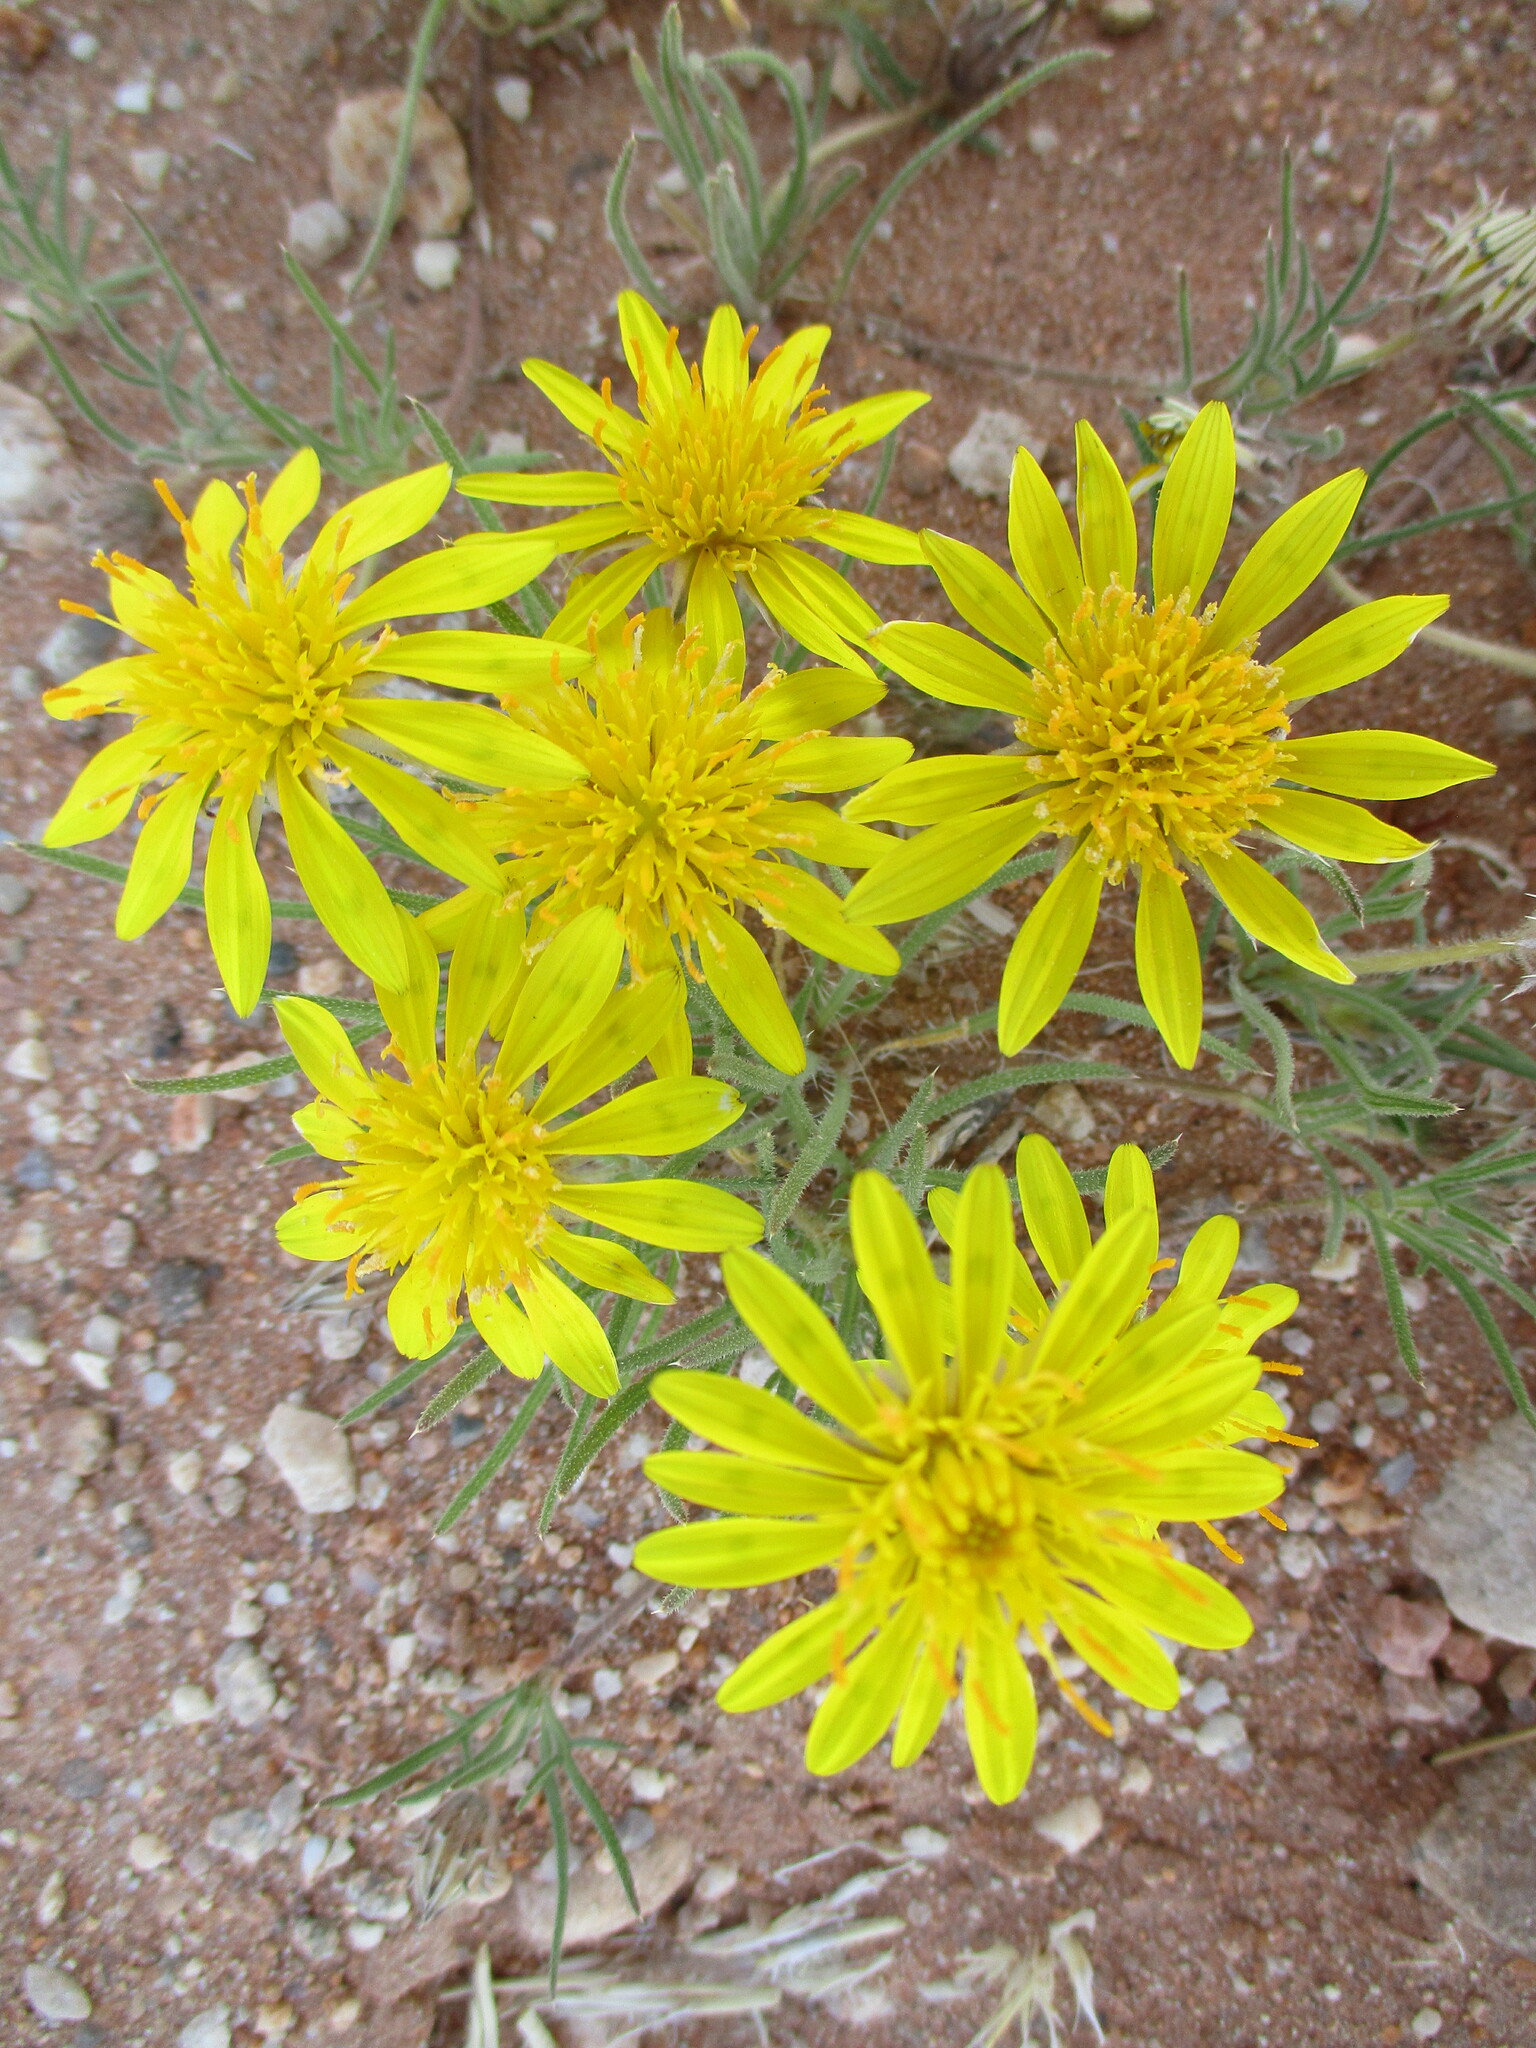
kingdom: Plantae
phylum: Tracheophyta
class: Magnoliopsida
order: Asterales
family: Asteraceae
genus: Hirpicium
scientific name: Hirpicium echinus
